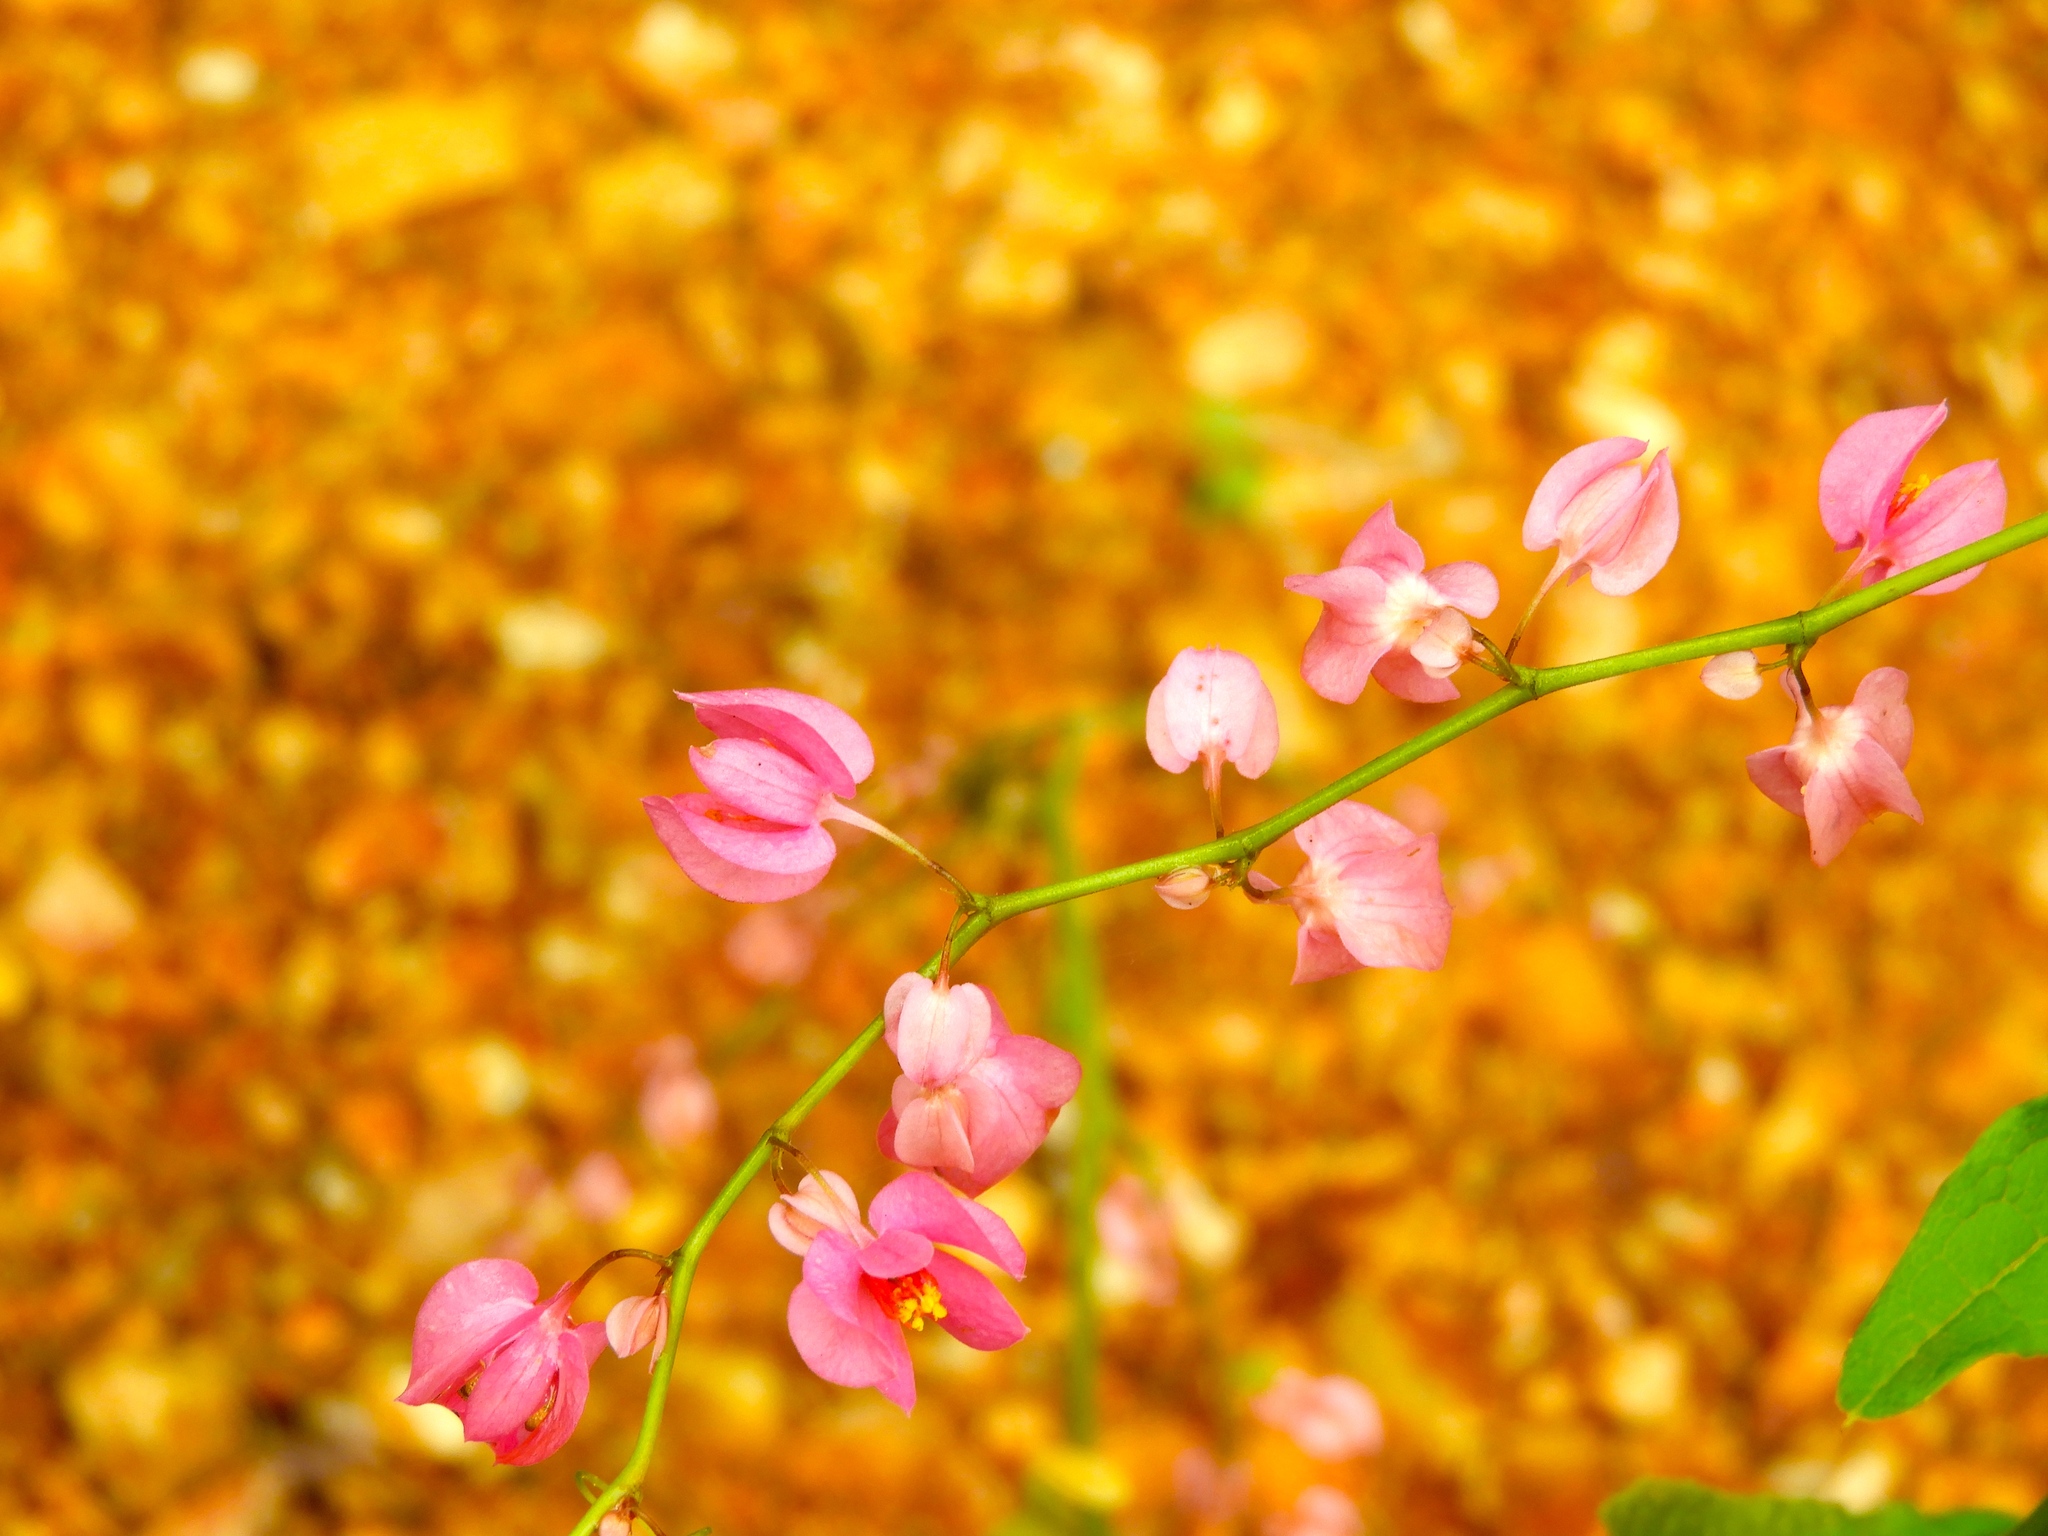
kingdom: Plantae
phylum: Tracheophyta
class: Magnoliopsida
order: Caryophyllales
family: Polygonaceae
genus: Antigonon
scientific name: Antigonon leptopus
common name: Coral vine
